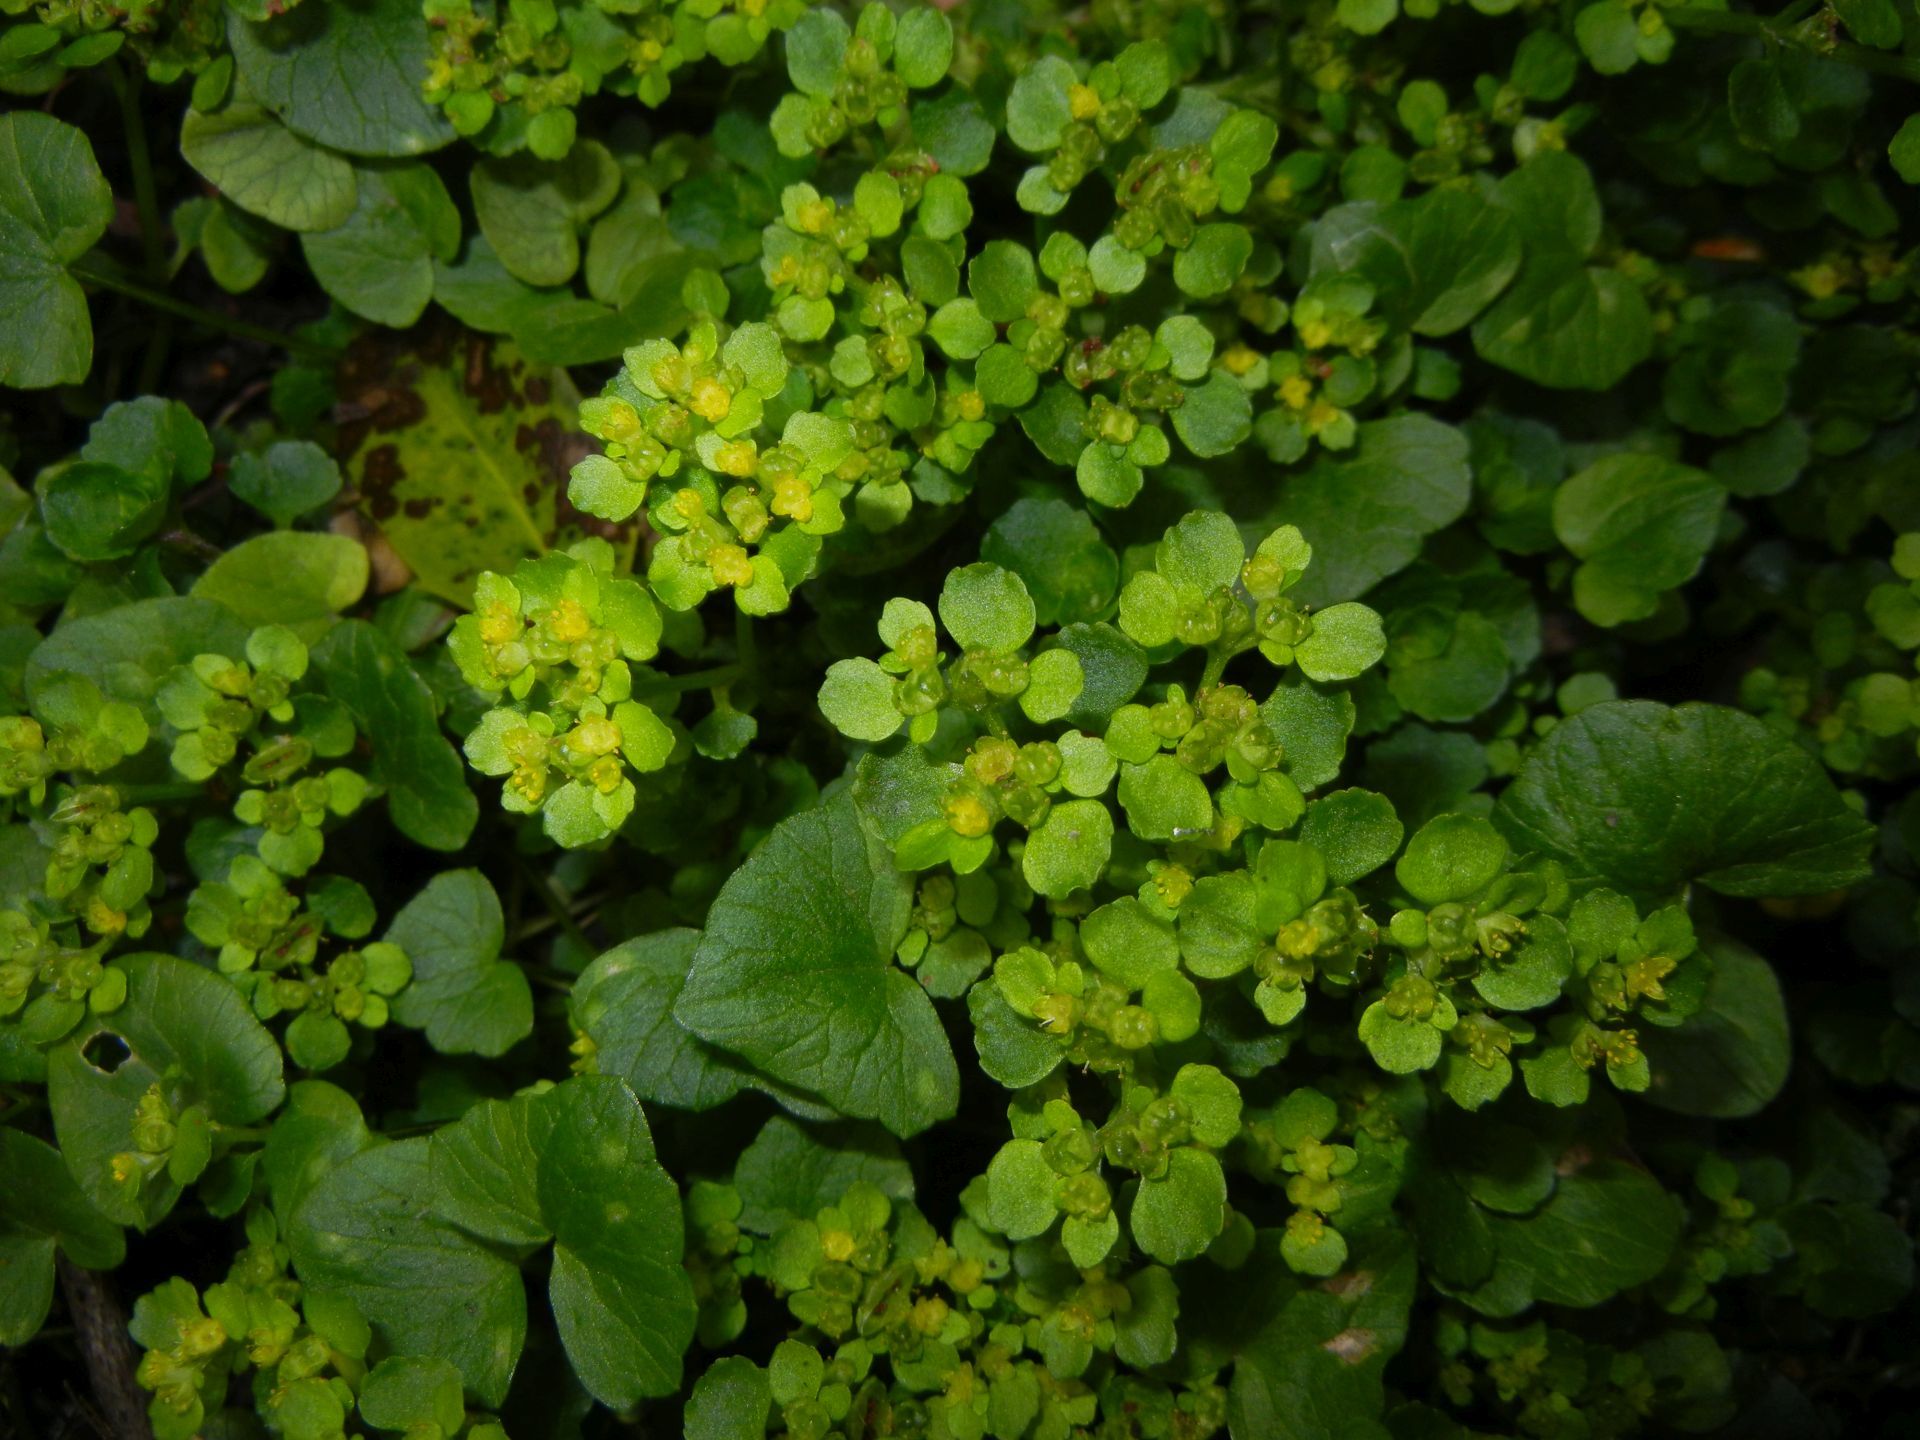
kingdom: Plantae
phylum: Tracheophyta
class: Magnoliopsida
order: Saxifragales
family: Saxifragaceae
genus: Chrysosplenium
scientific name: Chrysosplenium oppositifolium
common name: Opposite-leaved golden-saxifrage
